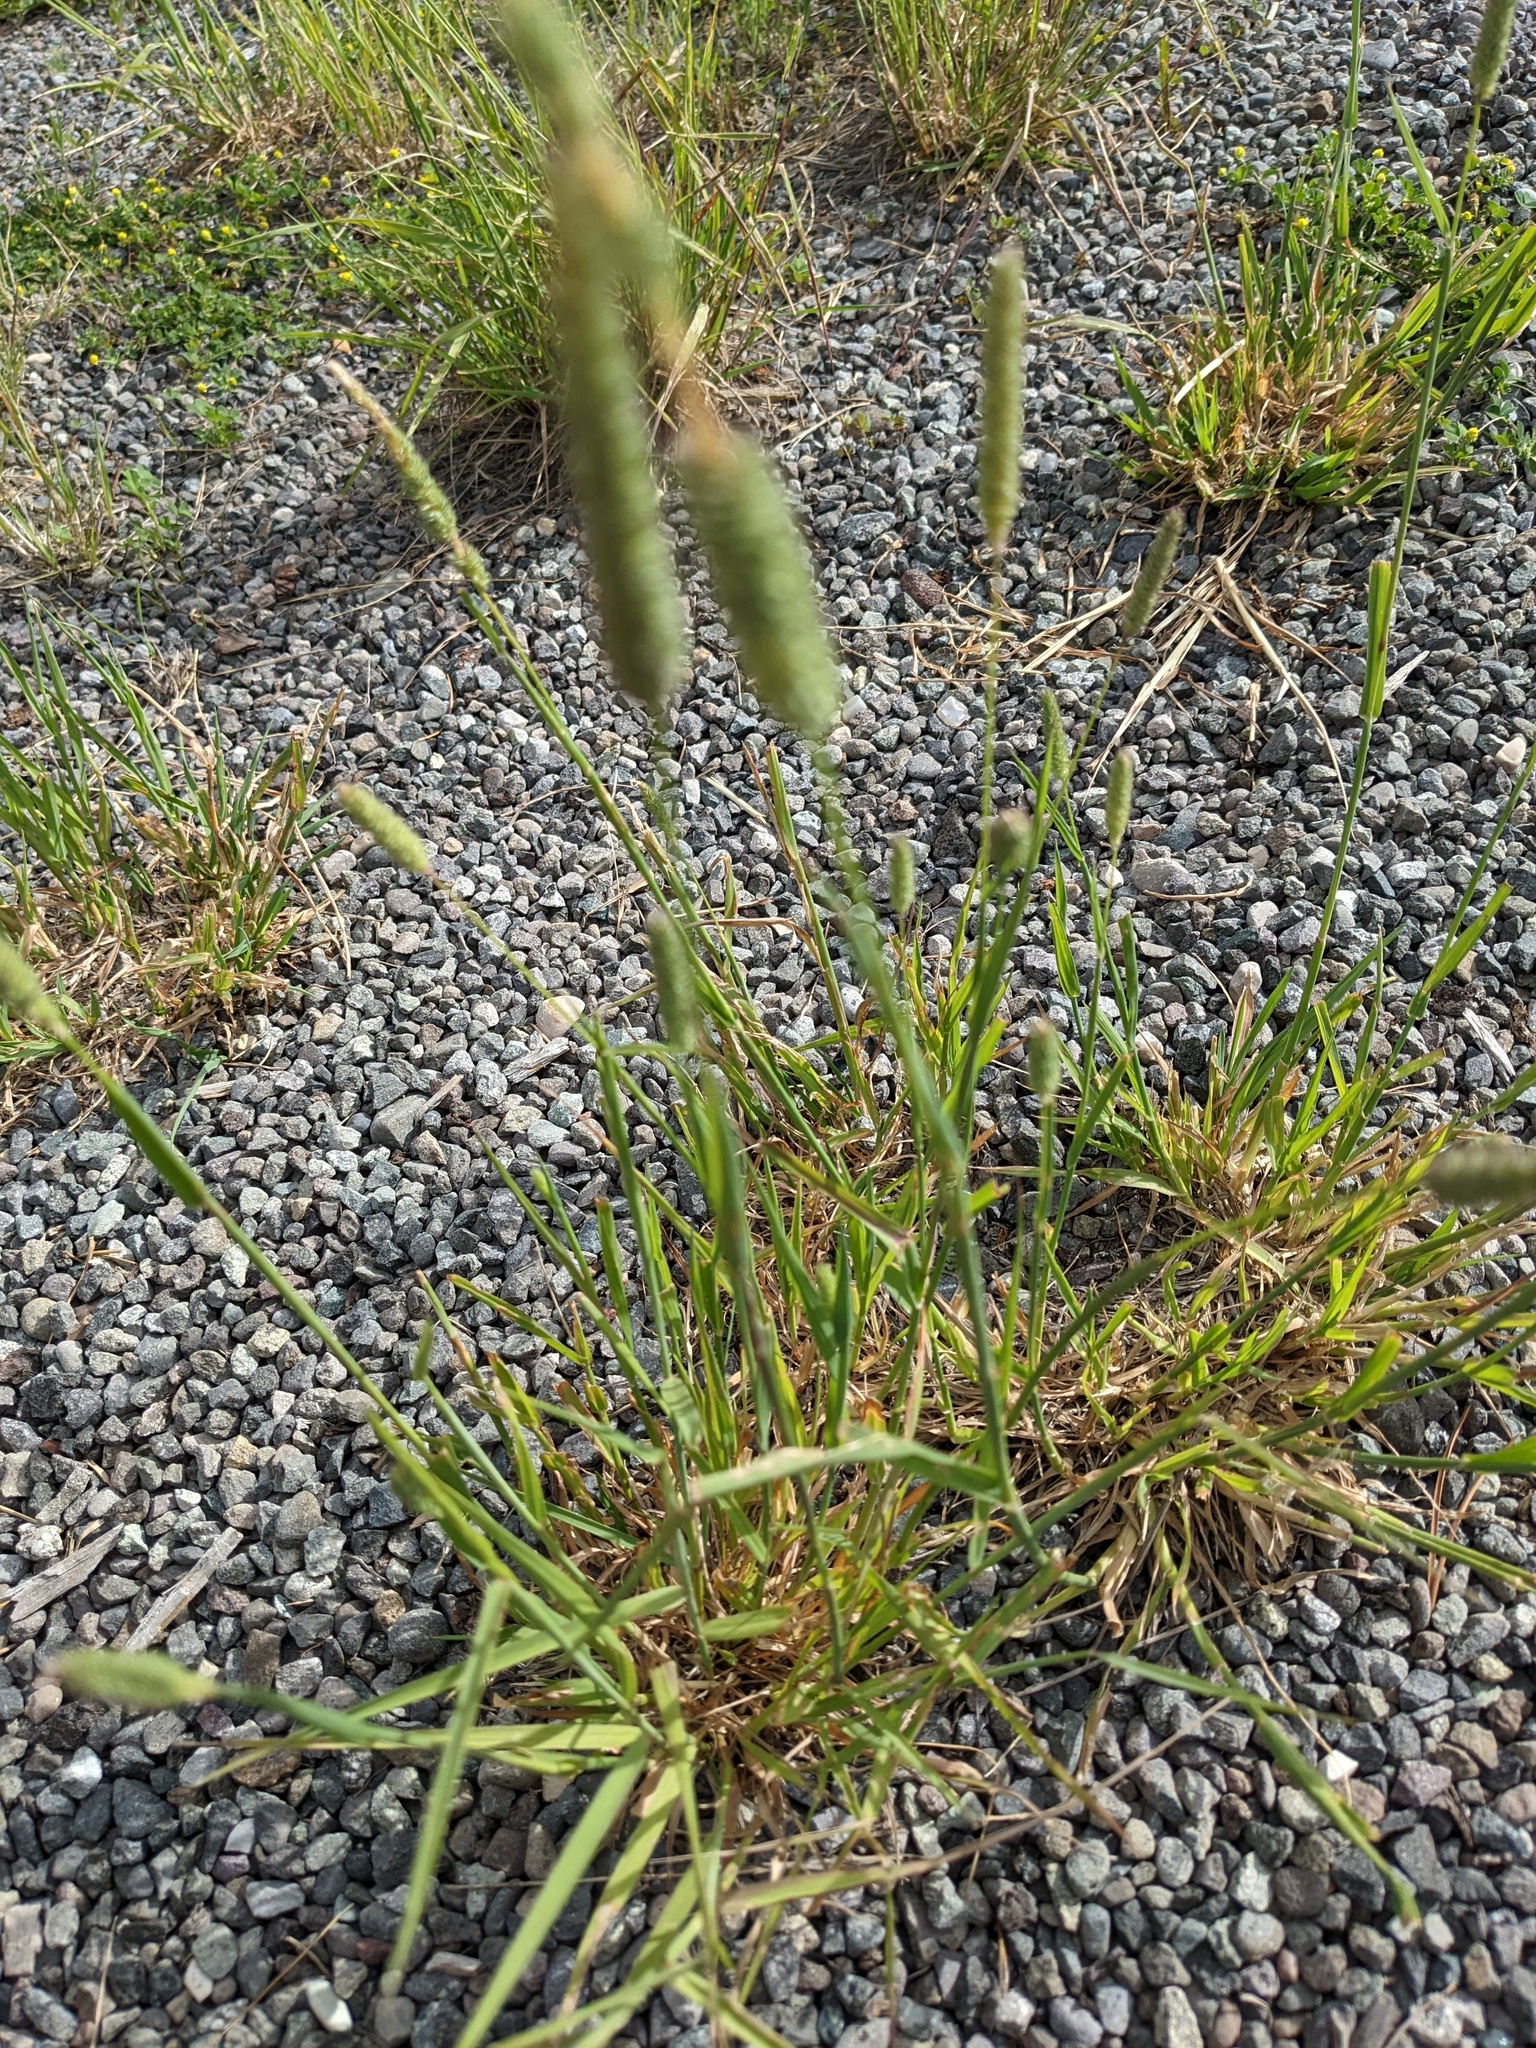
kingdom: Plantae
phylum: Tracheophyta
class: Liliopsida
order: Poales
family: Poaceae
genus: Phleum
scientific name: Phleum pratense
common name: Timothy grass
